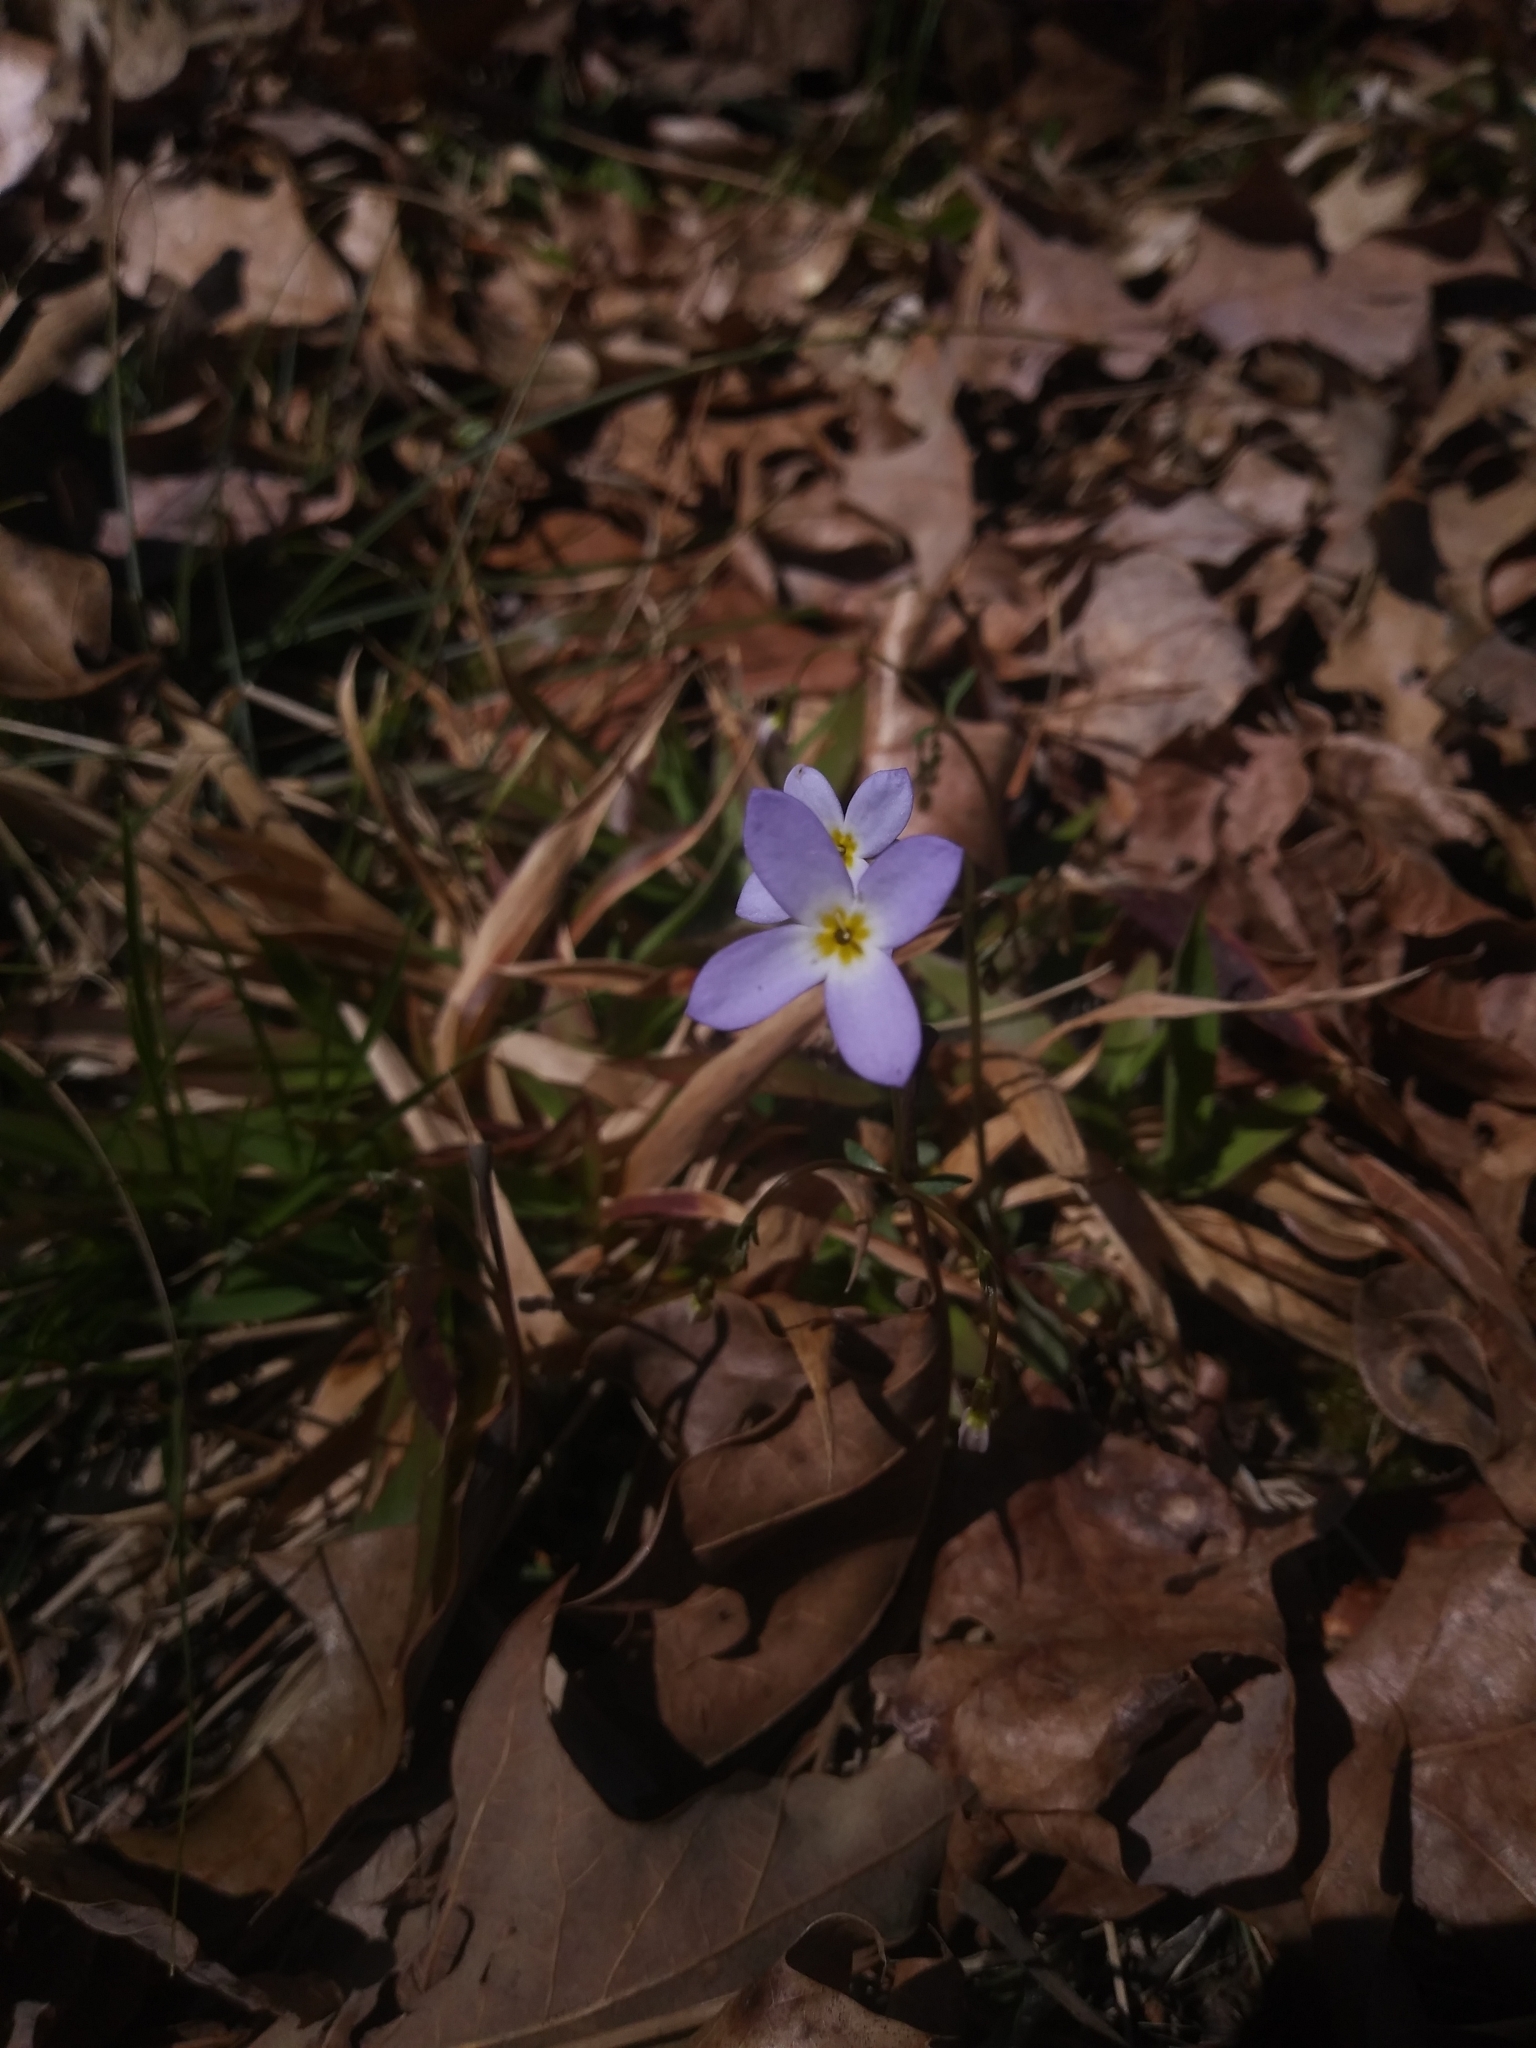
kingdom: Plantae
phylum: Tracheophyta
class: Magnoliopsida
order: Gentianales
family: Rubiaceae
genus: Houstonia
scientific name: Houstonia caerulea
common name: Bluets
